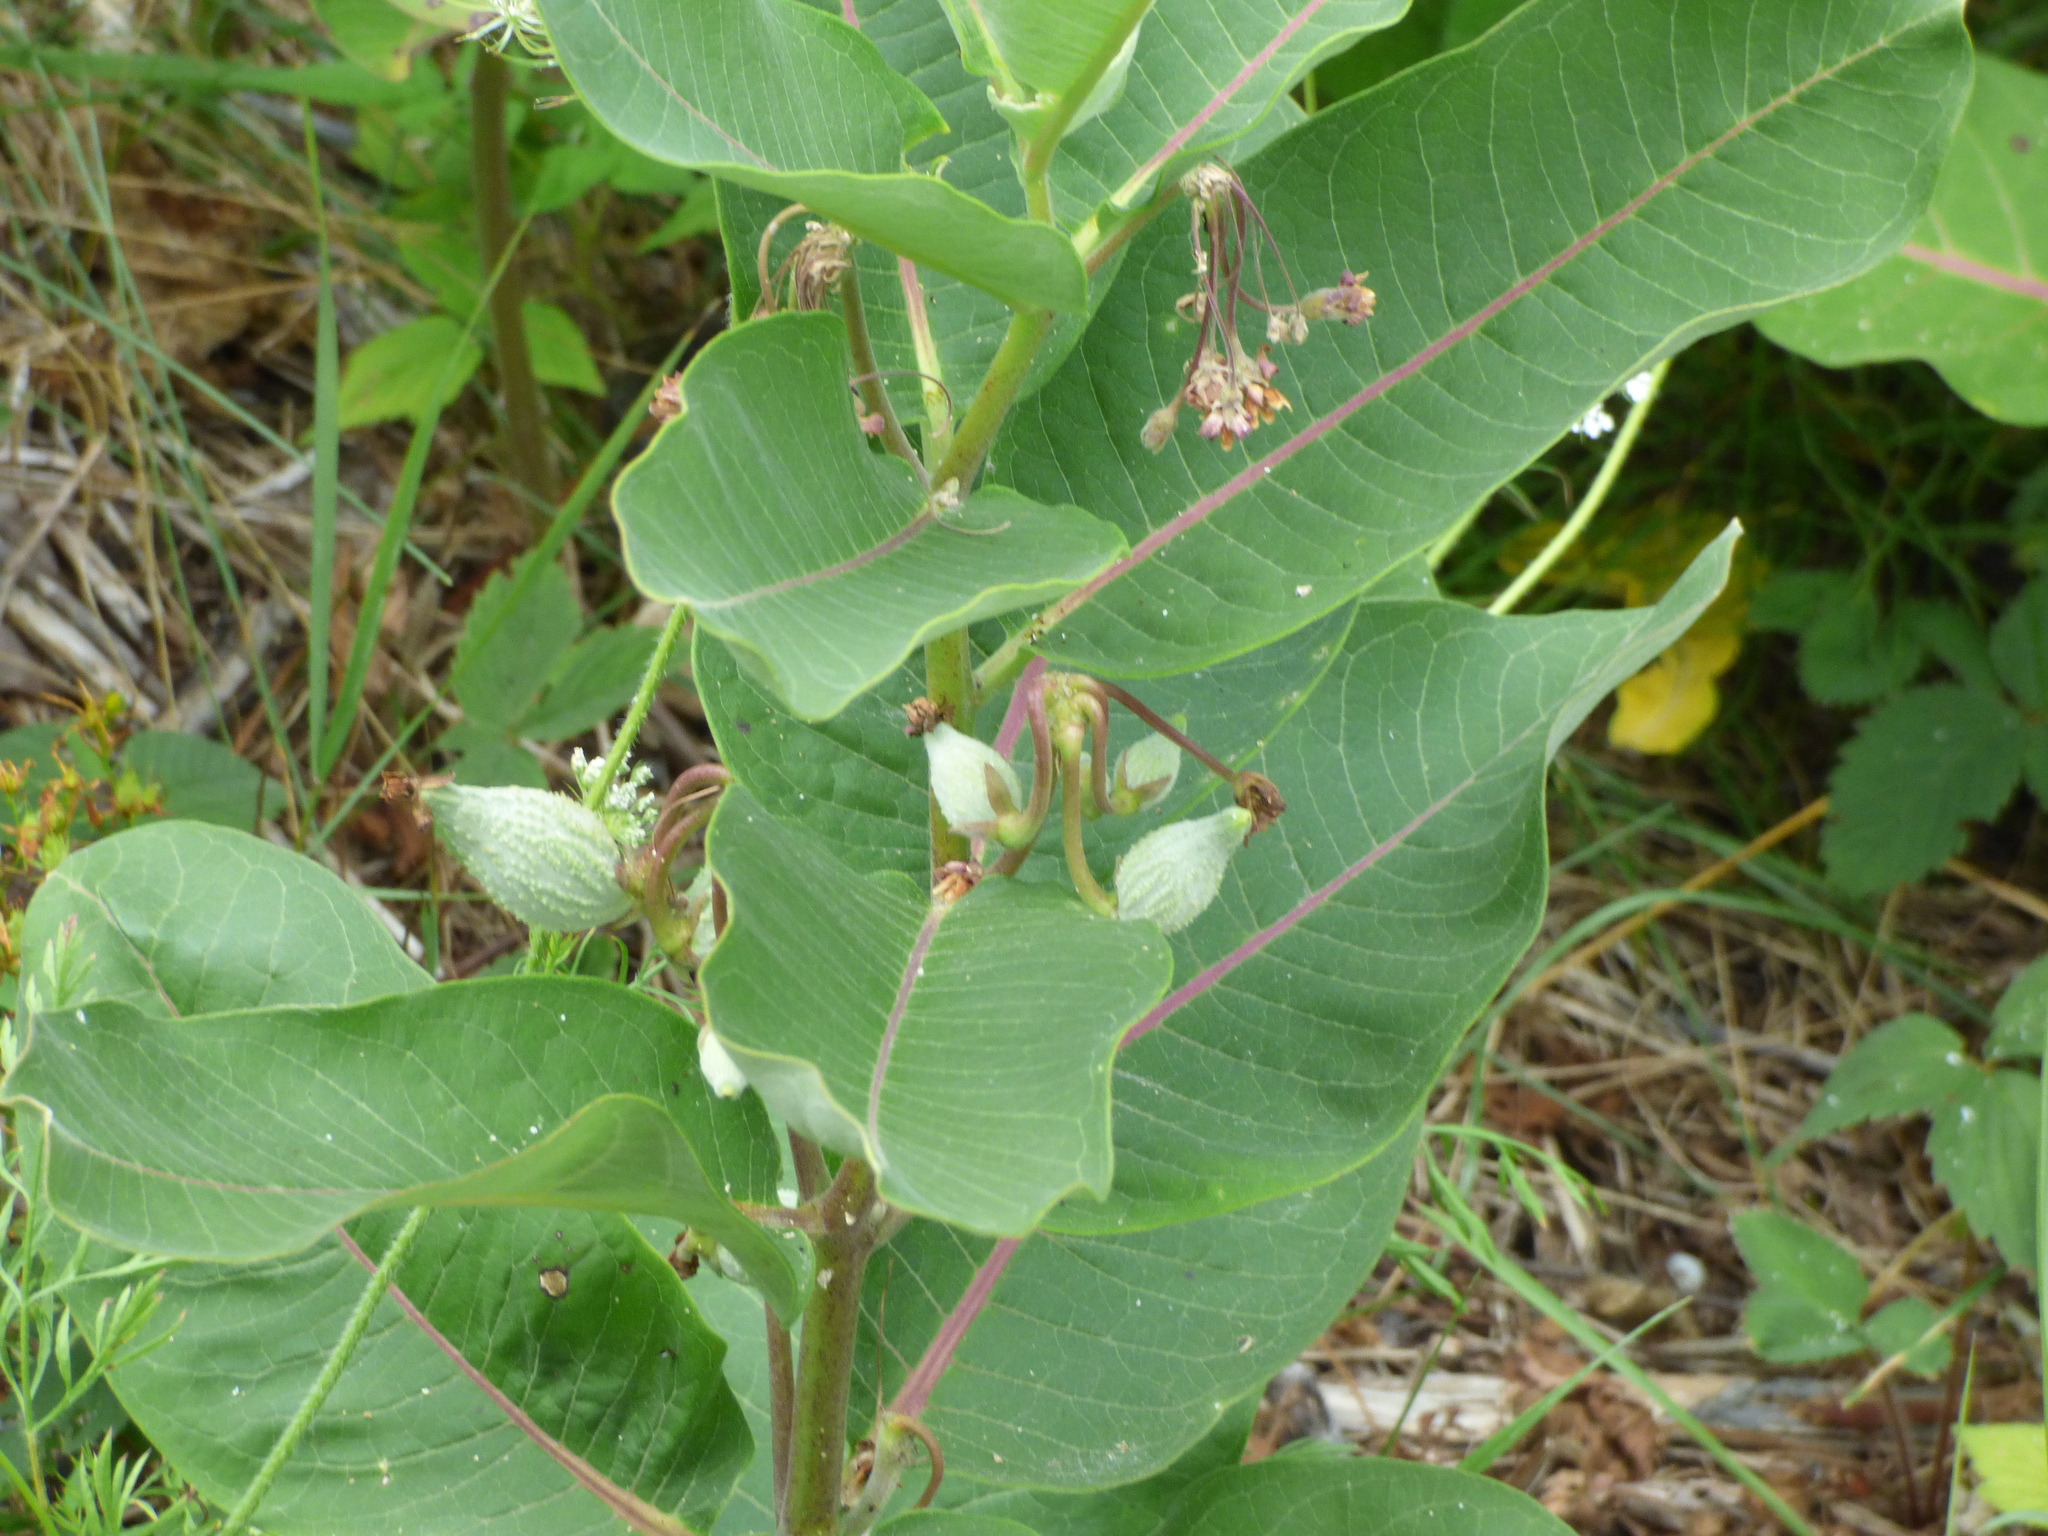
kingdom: Plantae
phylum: Tracheophyta
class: Magnoliopsida
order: Gentianales
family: Apocynaceae
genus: Asclepias
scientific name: Asclepias syriaca
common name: Common milkweed
